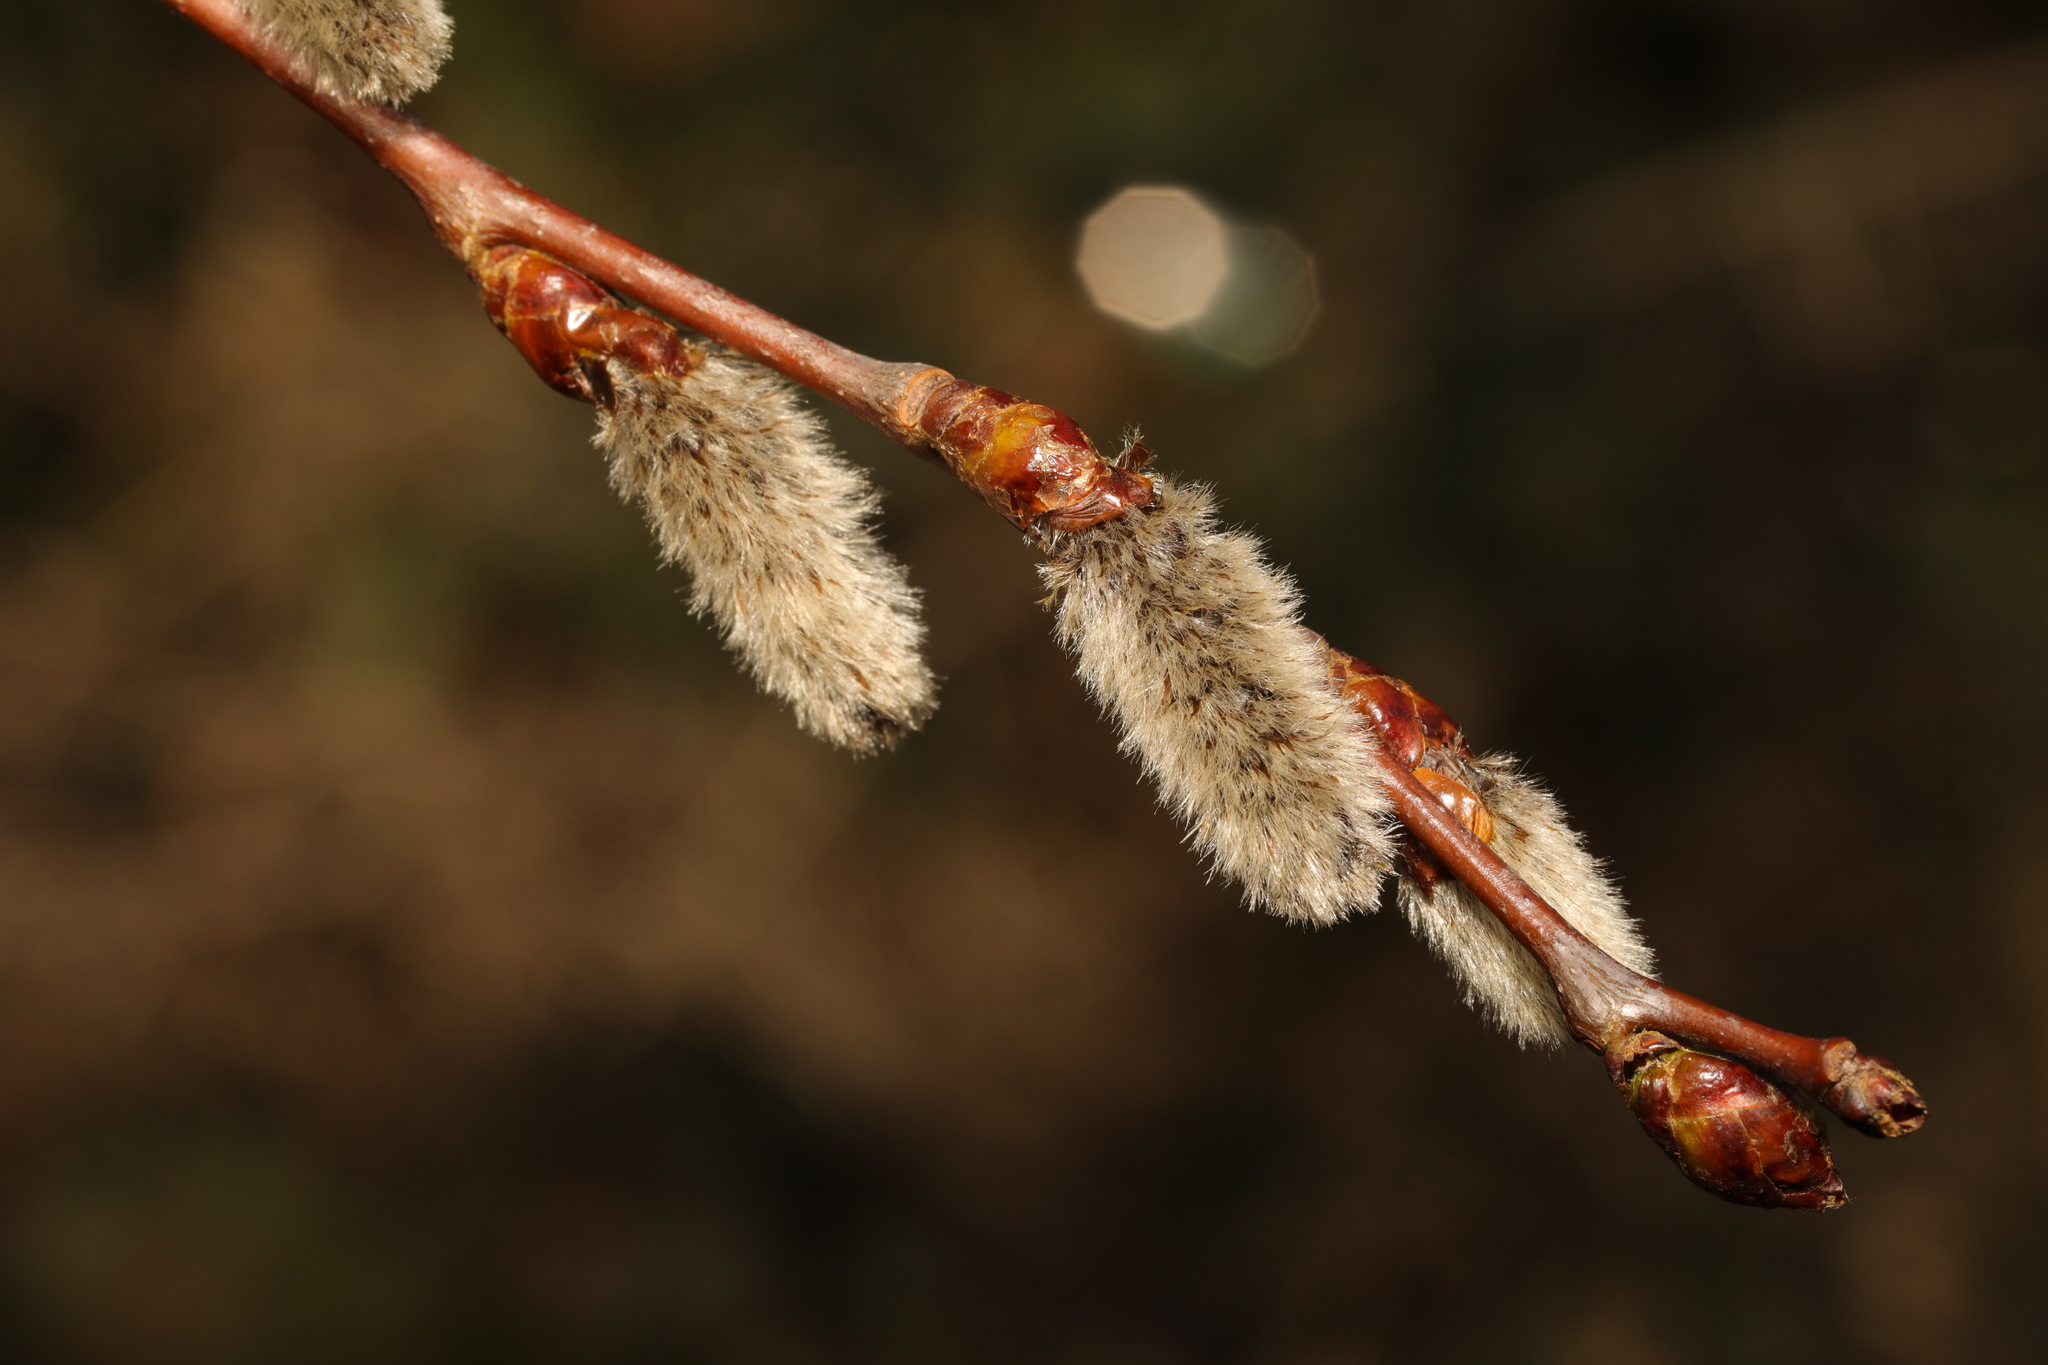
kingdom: Plantae
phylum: Tracheophyta
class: Magnoliopsida
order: Malpighiales
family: Salicaceae
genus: Populus
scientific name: Populus tremula
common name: European aspen
